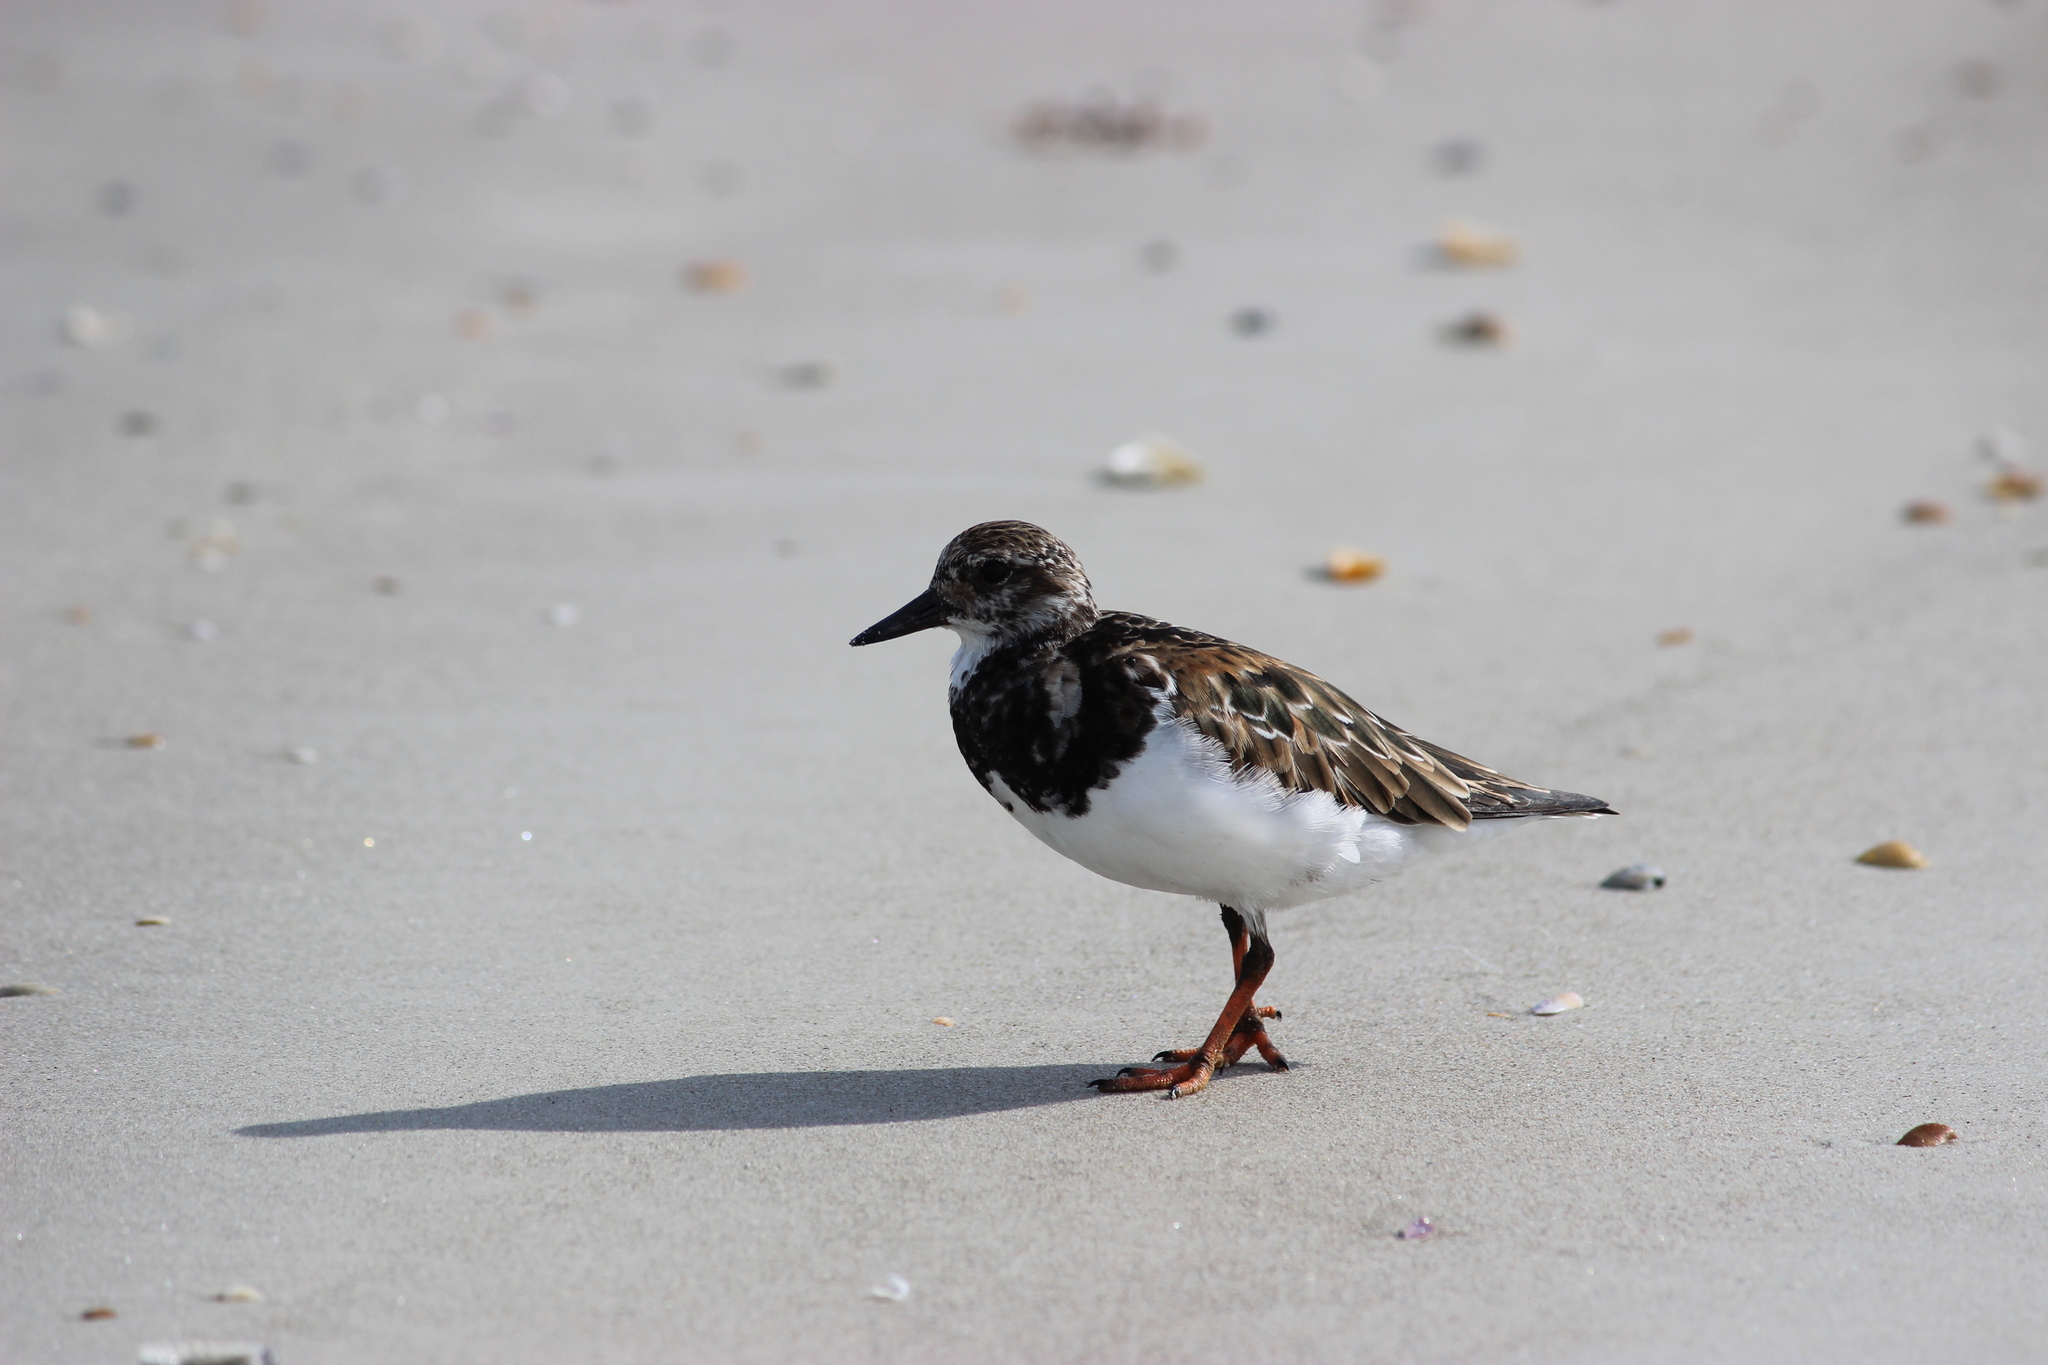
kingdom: Animalia
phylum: Chordata
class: Aves
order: Charadriiformes
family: Scolopacidae
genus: Arenaria
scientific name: Arenaria interpres
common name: Ruddy turnstone
